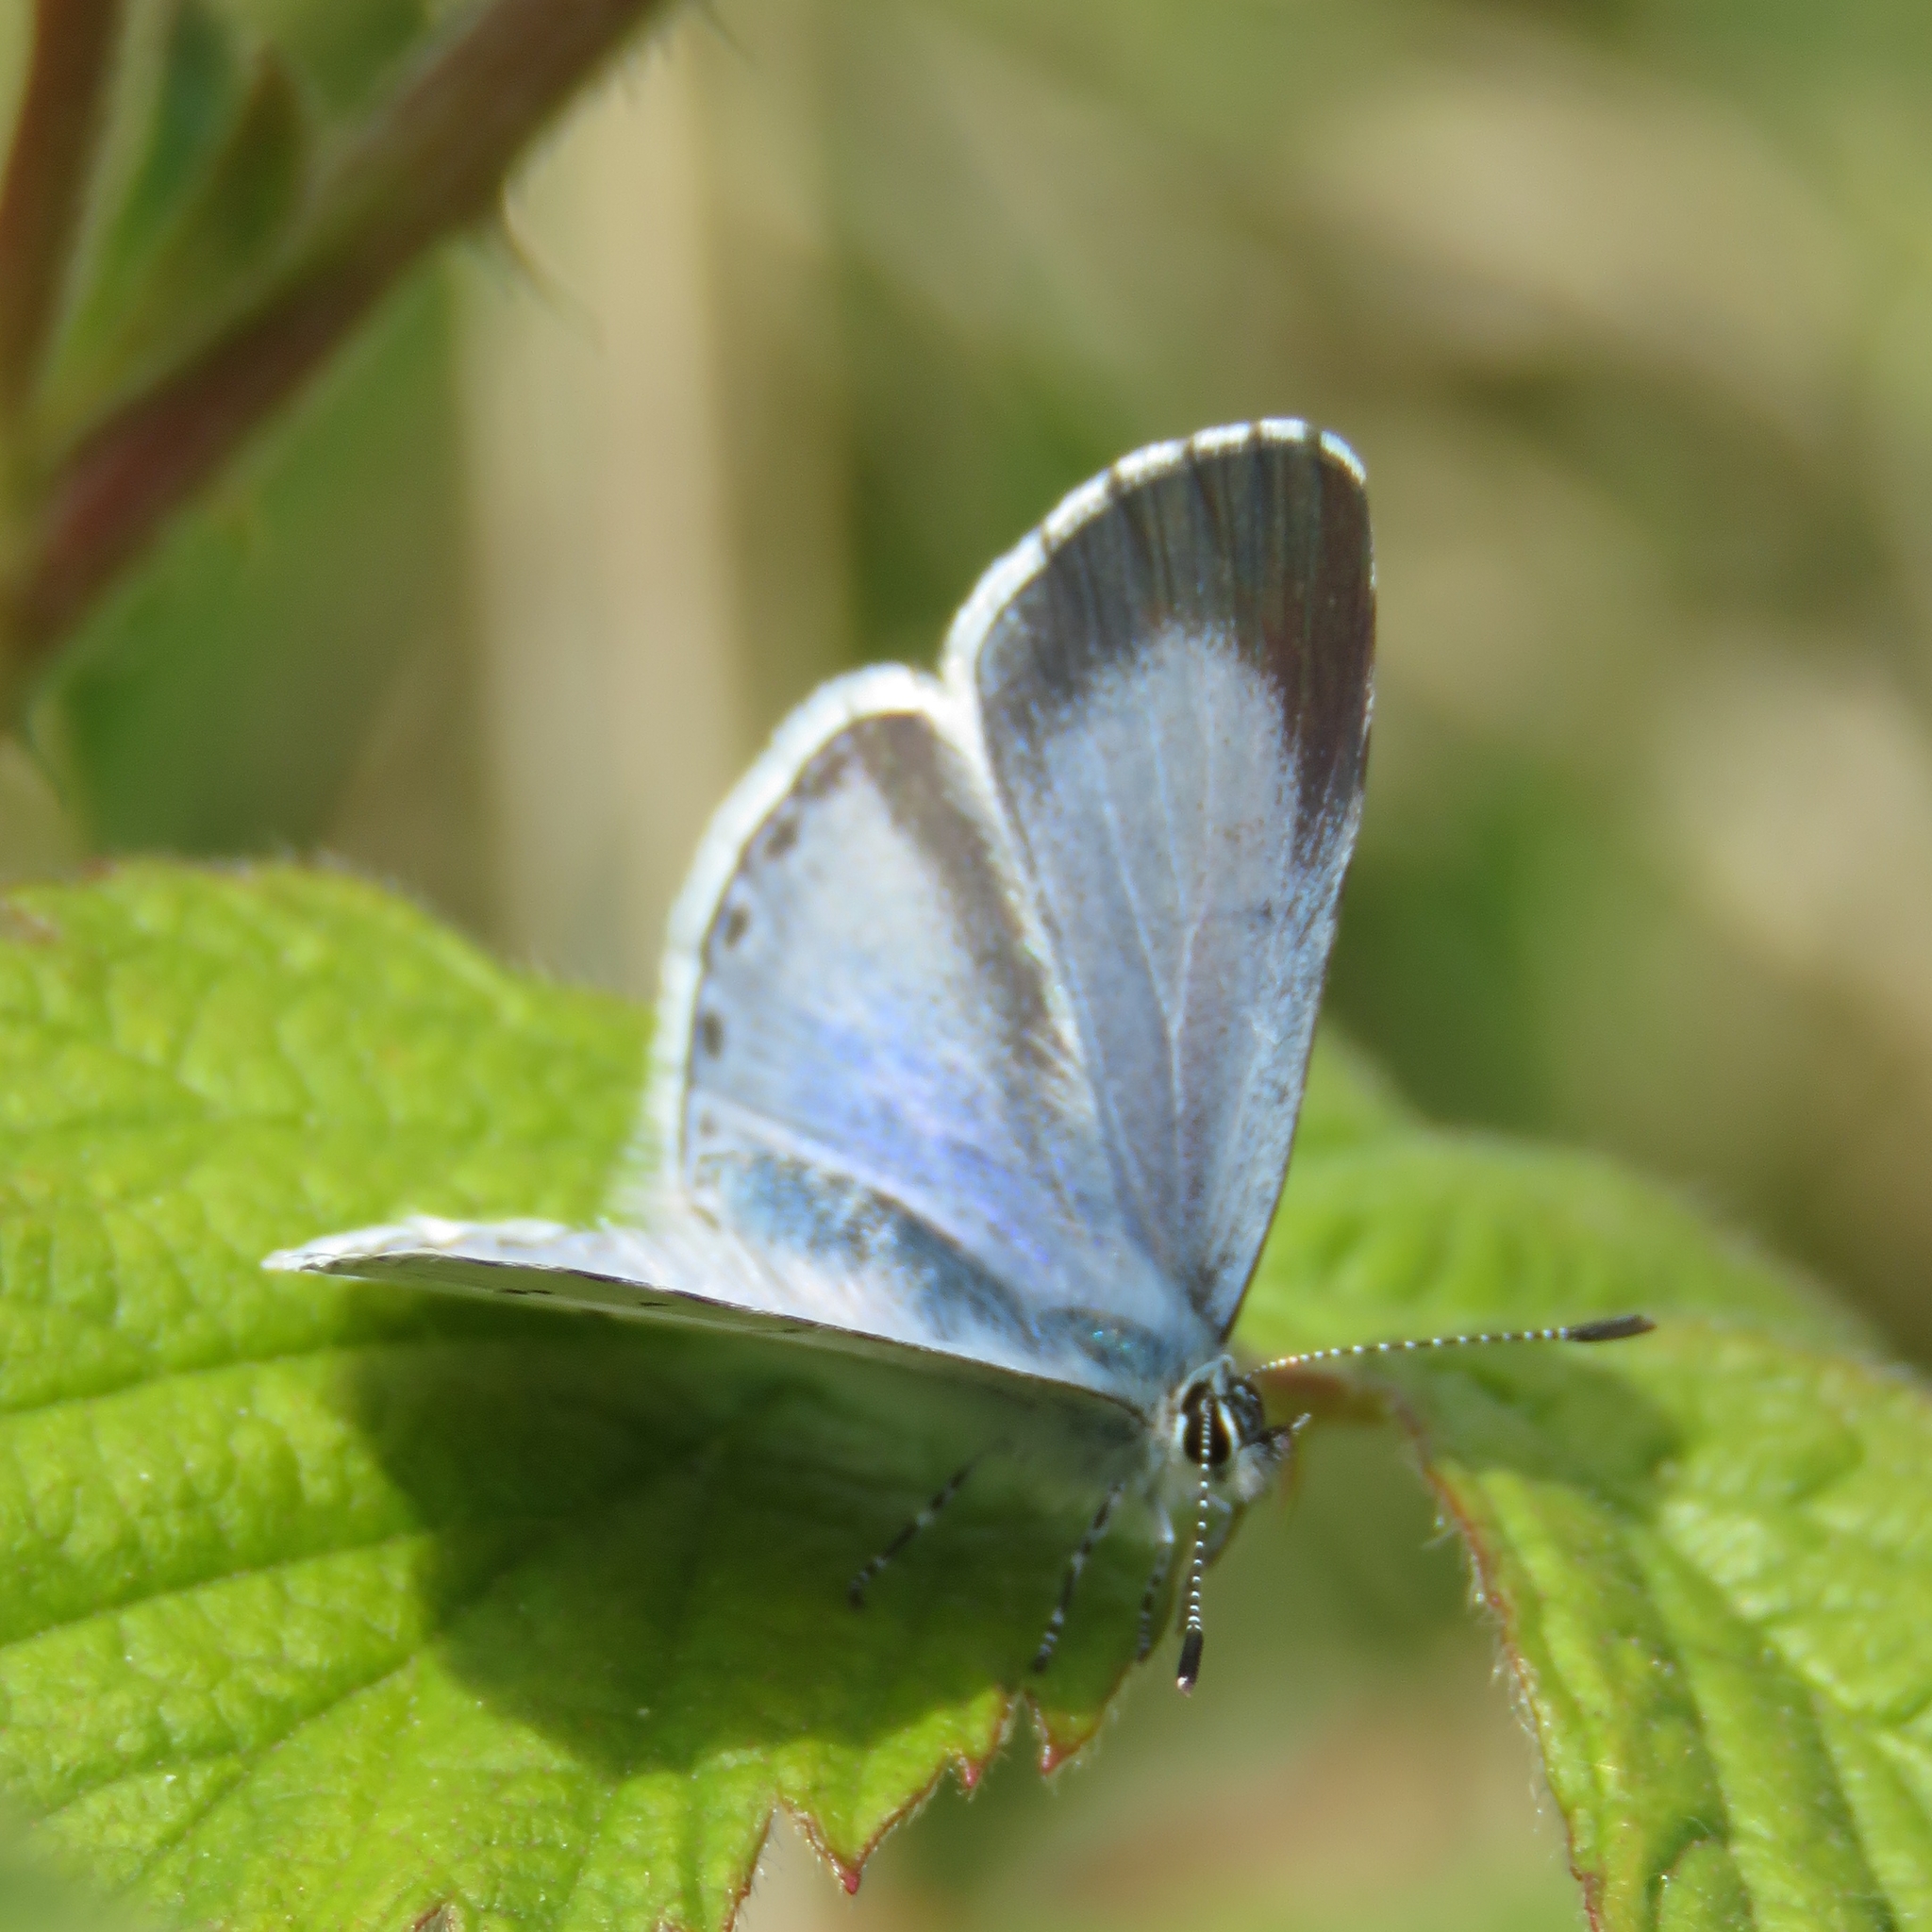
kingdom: Animalia
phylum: Arthropoda
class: Insecta
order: Lepidoptera
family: Lycaenidae
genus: Celastrina
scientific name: Celastrina argiolus
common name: Holly blue
